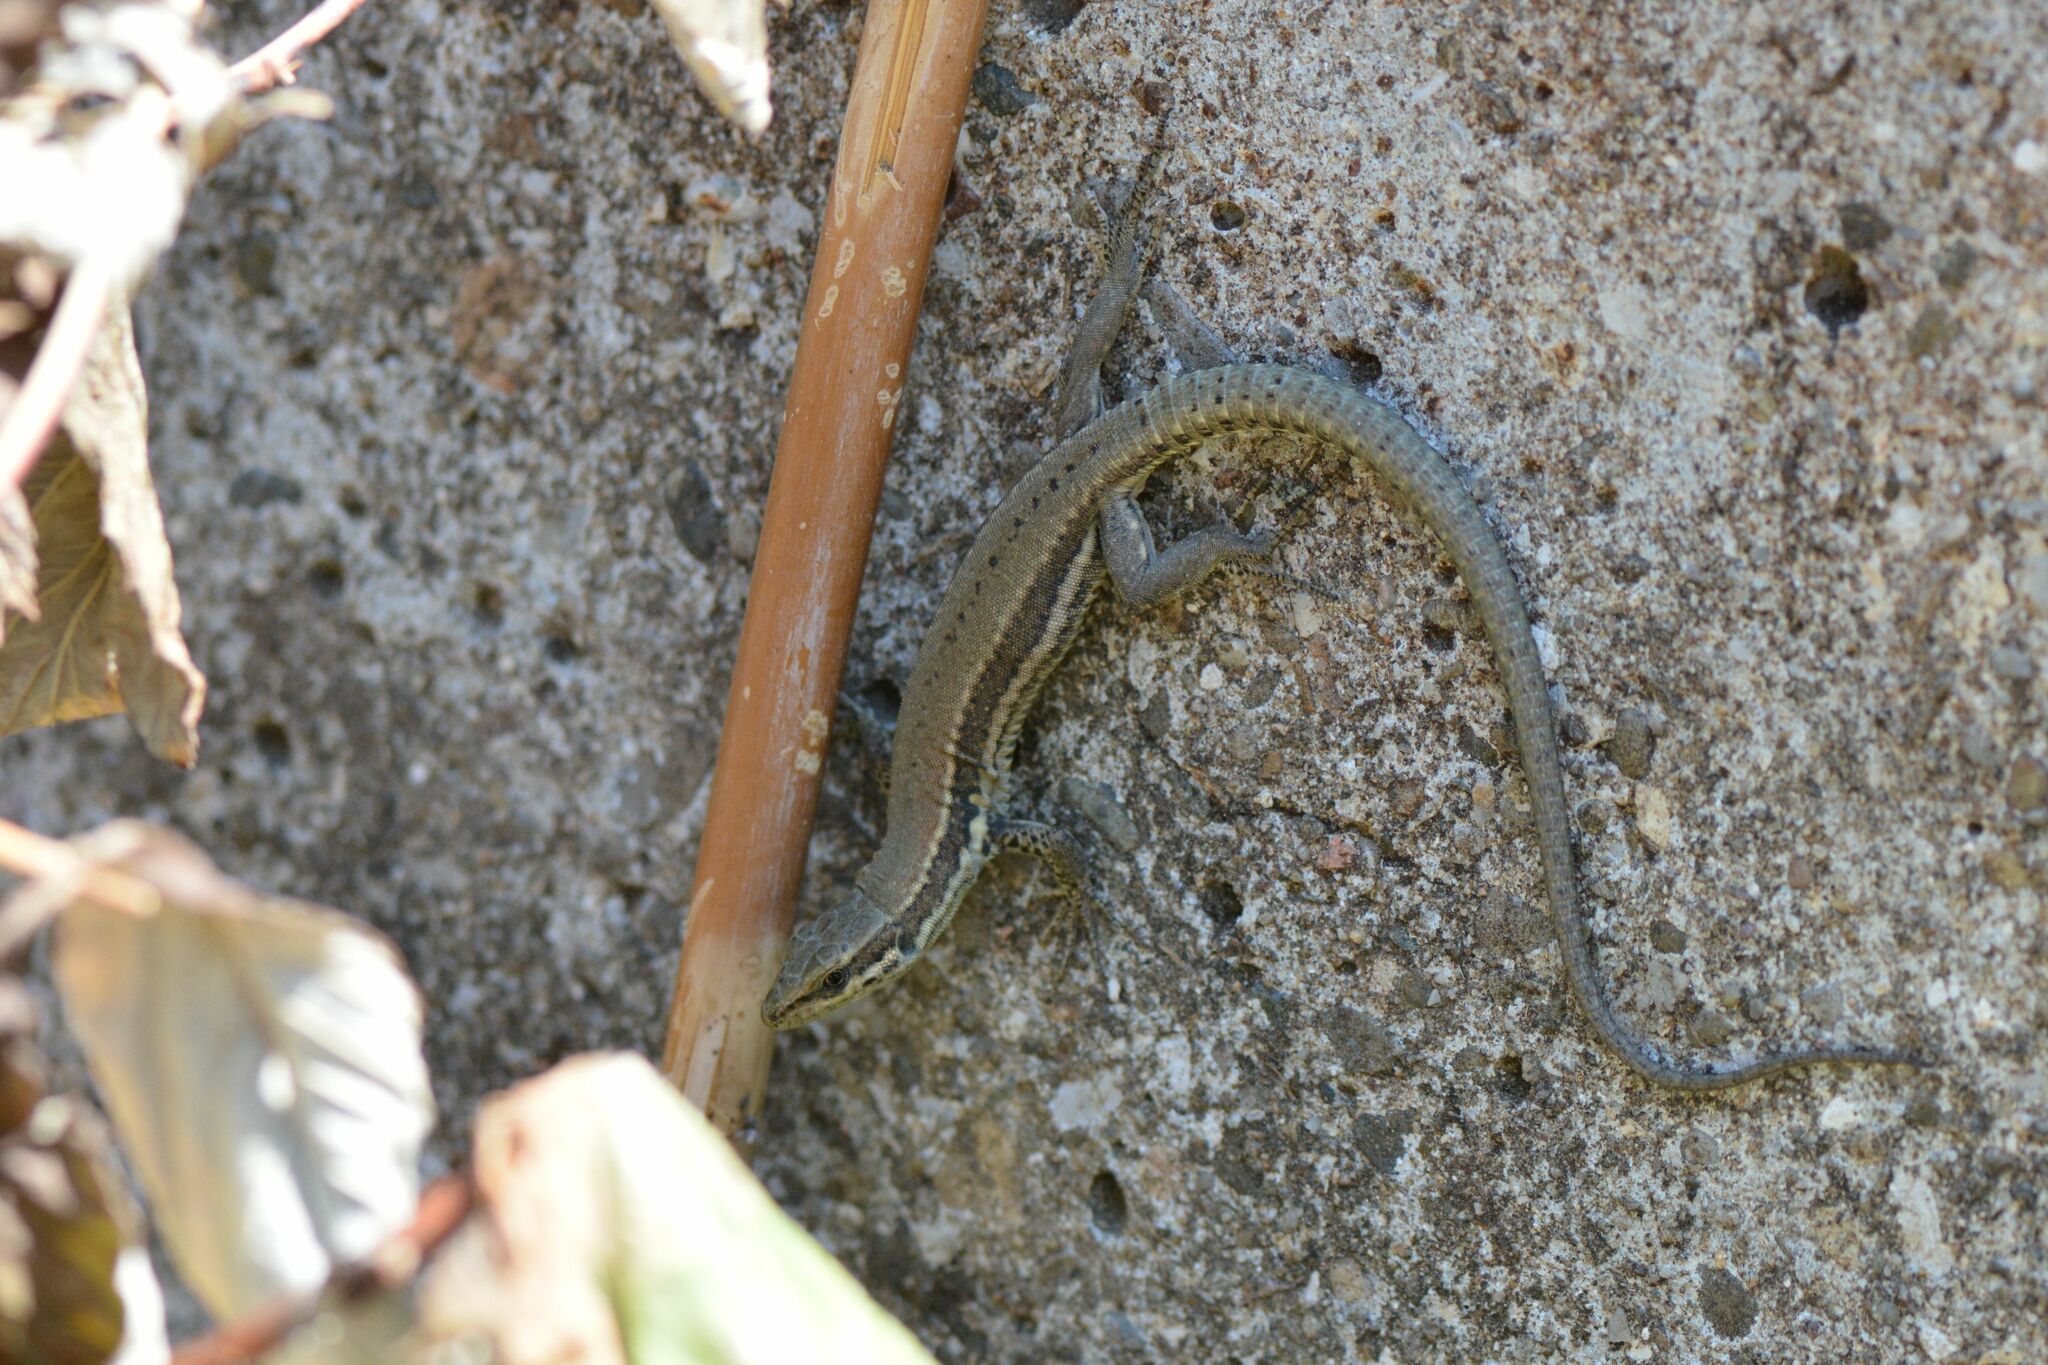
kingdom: Animalia
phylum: Chordata
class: Squamata
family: Lacertidae
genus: Podarcis
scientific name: Podarcis muralis
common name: Common wall lizard
